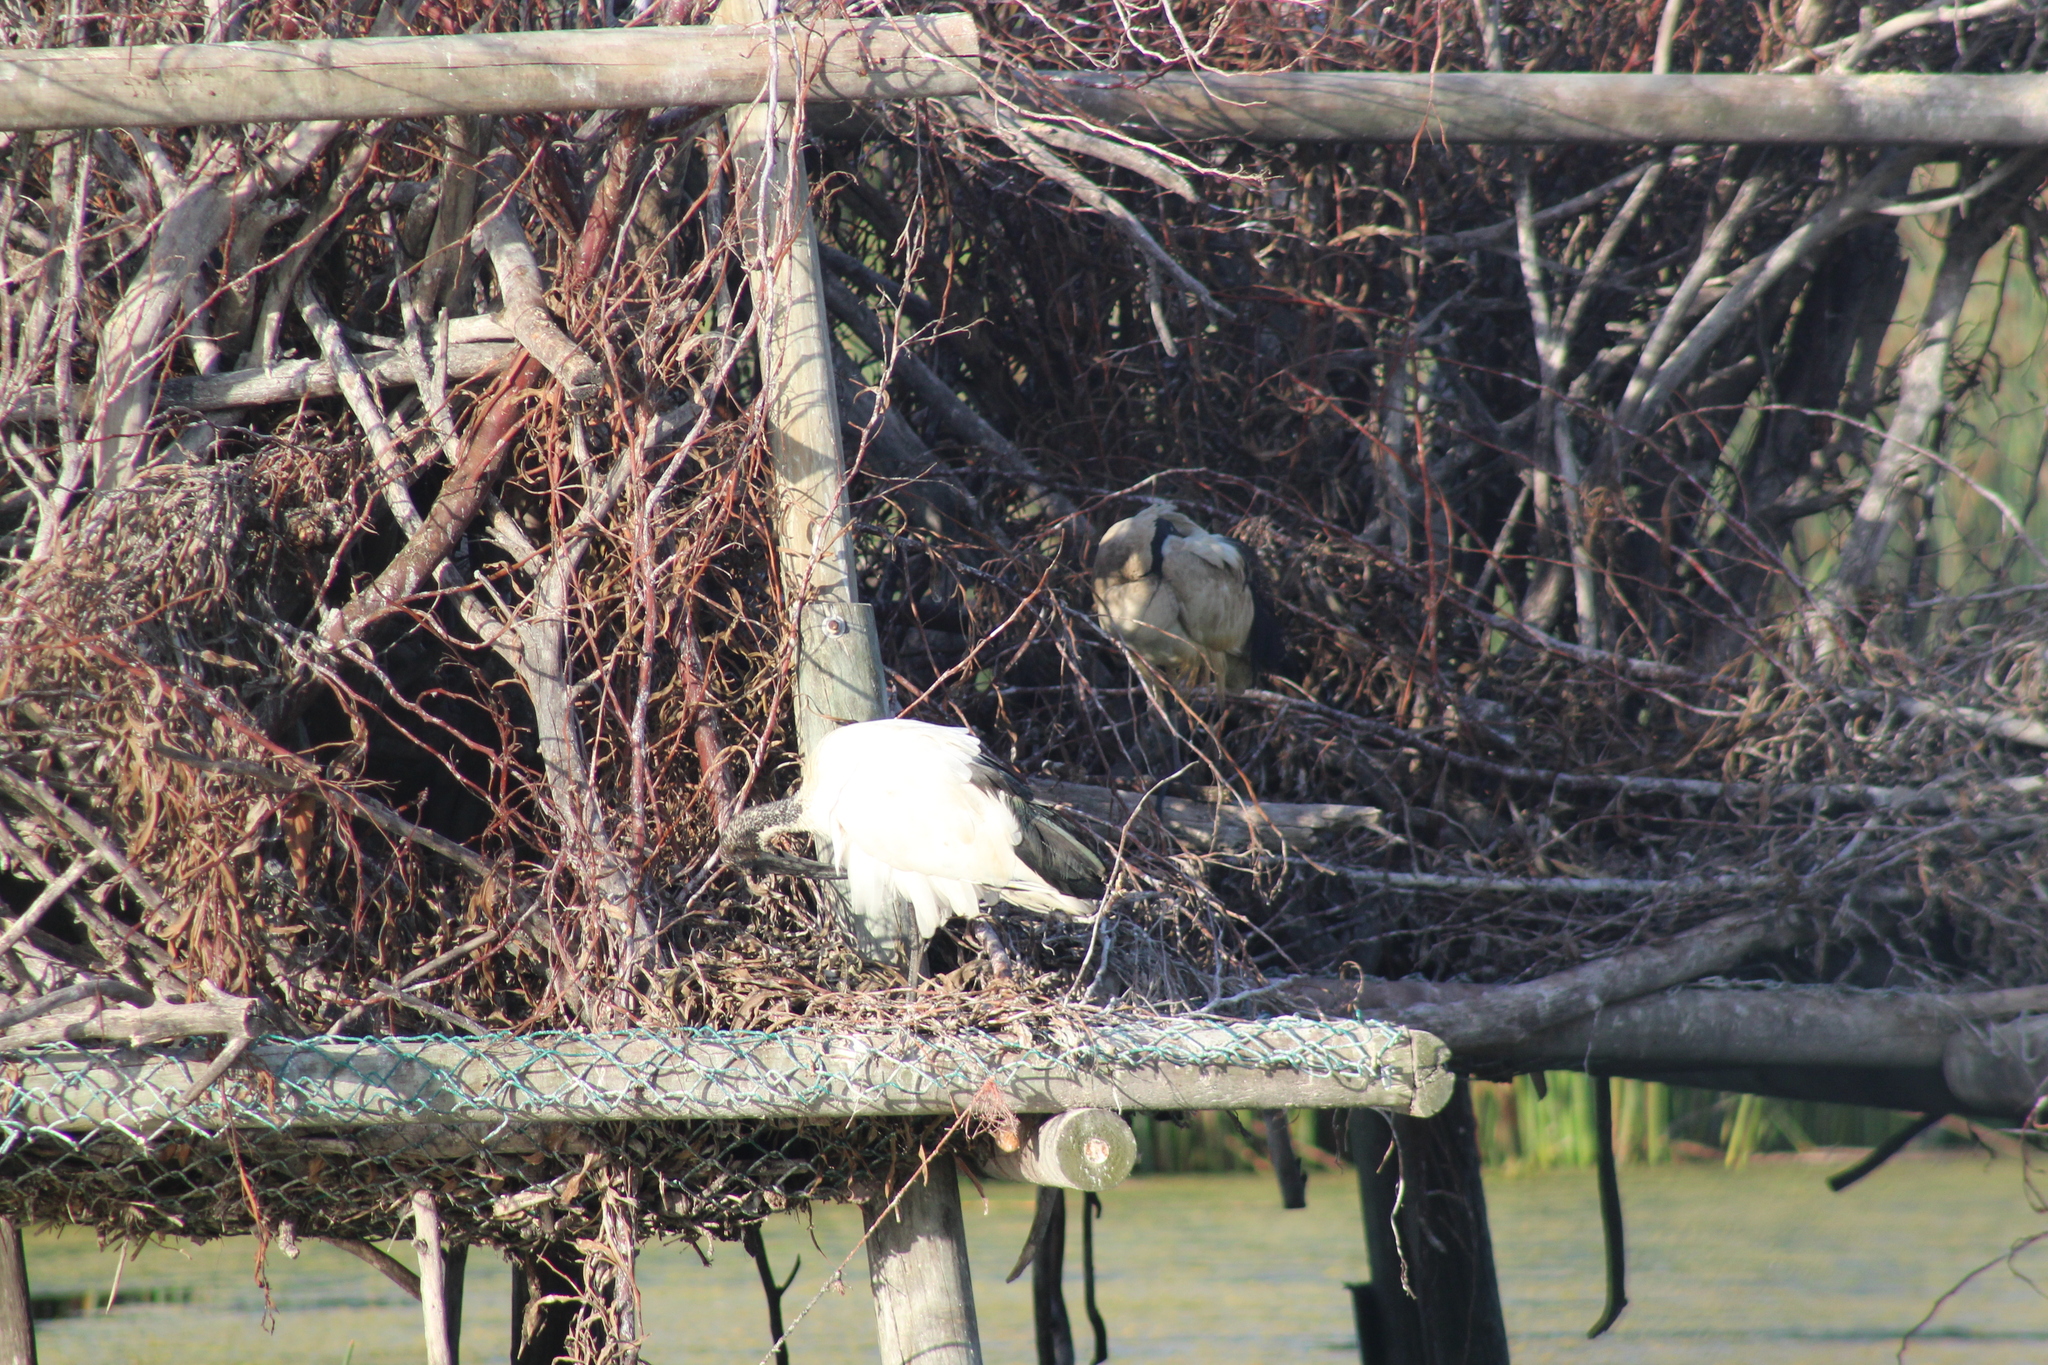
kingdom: Animalia
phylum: Chordata
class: Aves
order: Pelecaniformes
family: Threskiornithidae
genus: Threskiornis
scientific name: Threskiornis aethiopicus
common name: Sacred ibis
